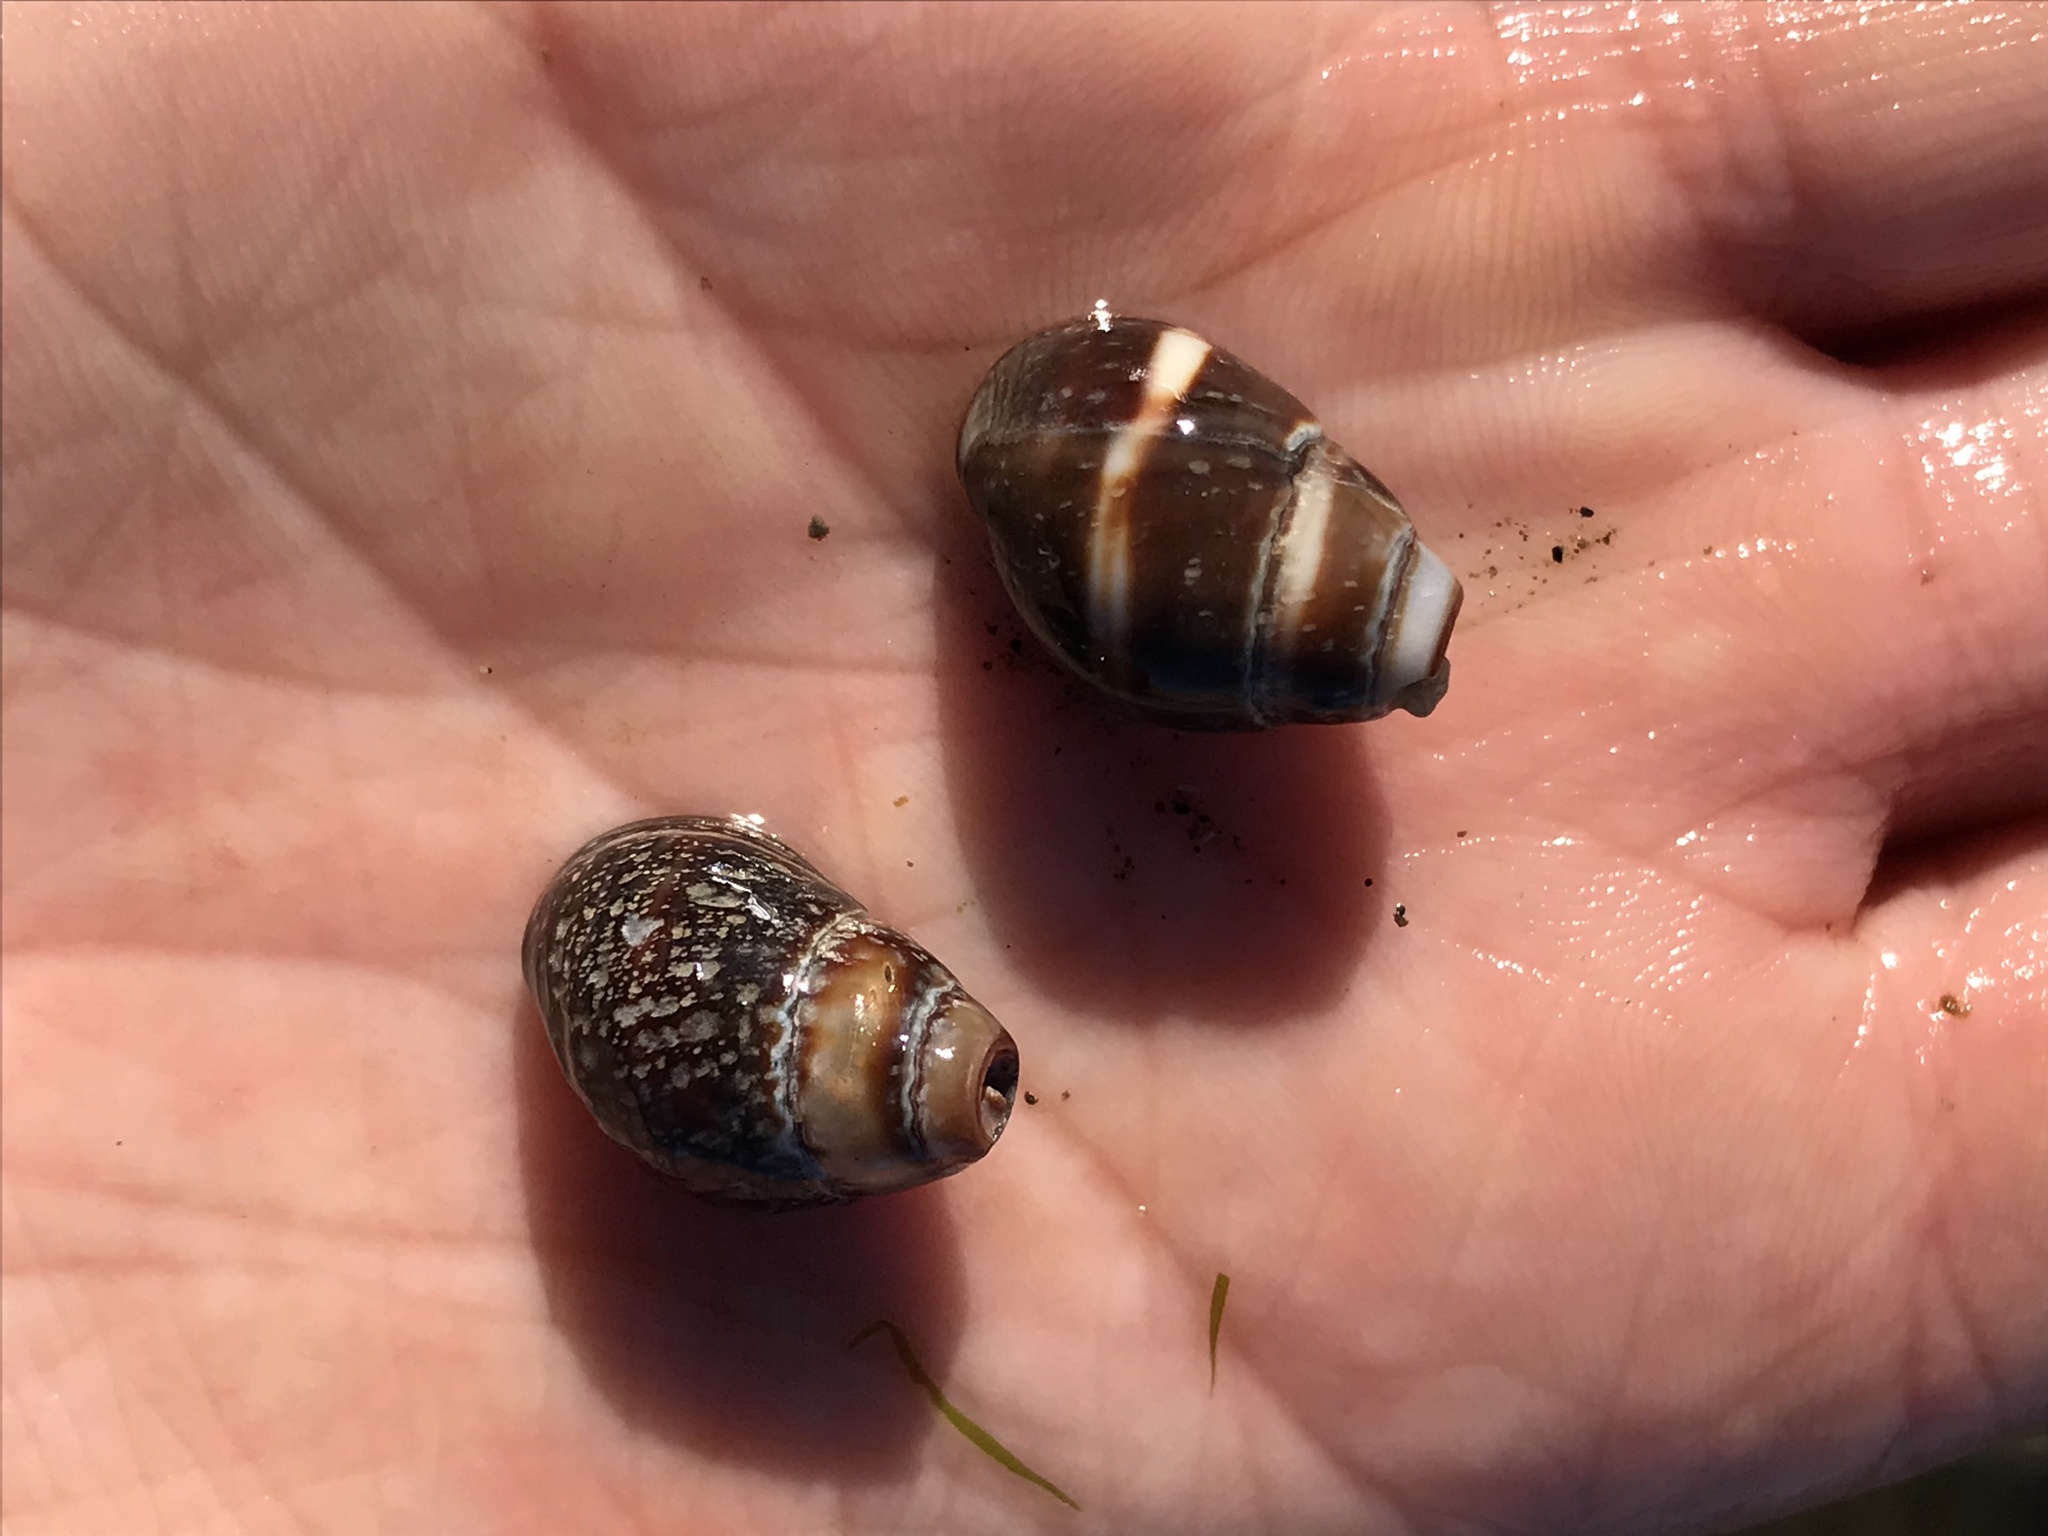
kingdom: Animalia
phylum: Mollusca
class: Gastropoda
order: Neogastropoda
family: Nassariidae
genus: Ilyanassa
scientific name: Ilyanassa obsoleta
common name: Eastern mudsnail
